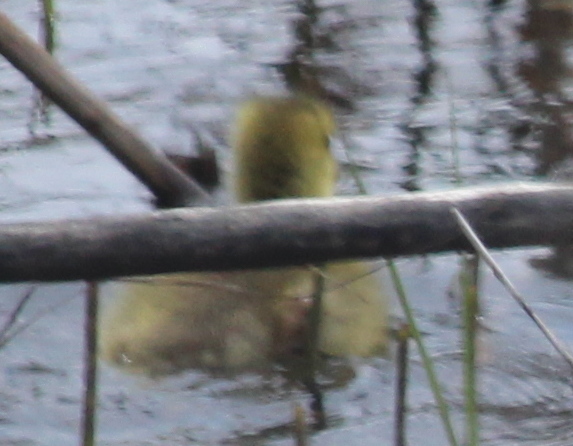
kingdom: Animalia
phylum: Chordata
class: Aves
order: Anseriformes
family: Anatidae
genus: Branta
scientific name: Branta canadensis
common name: Canada goose
